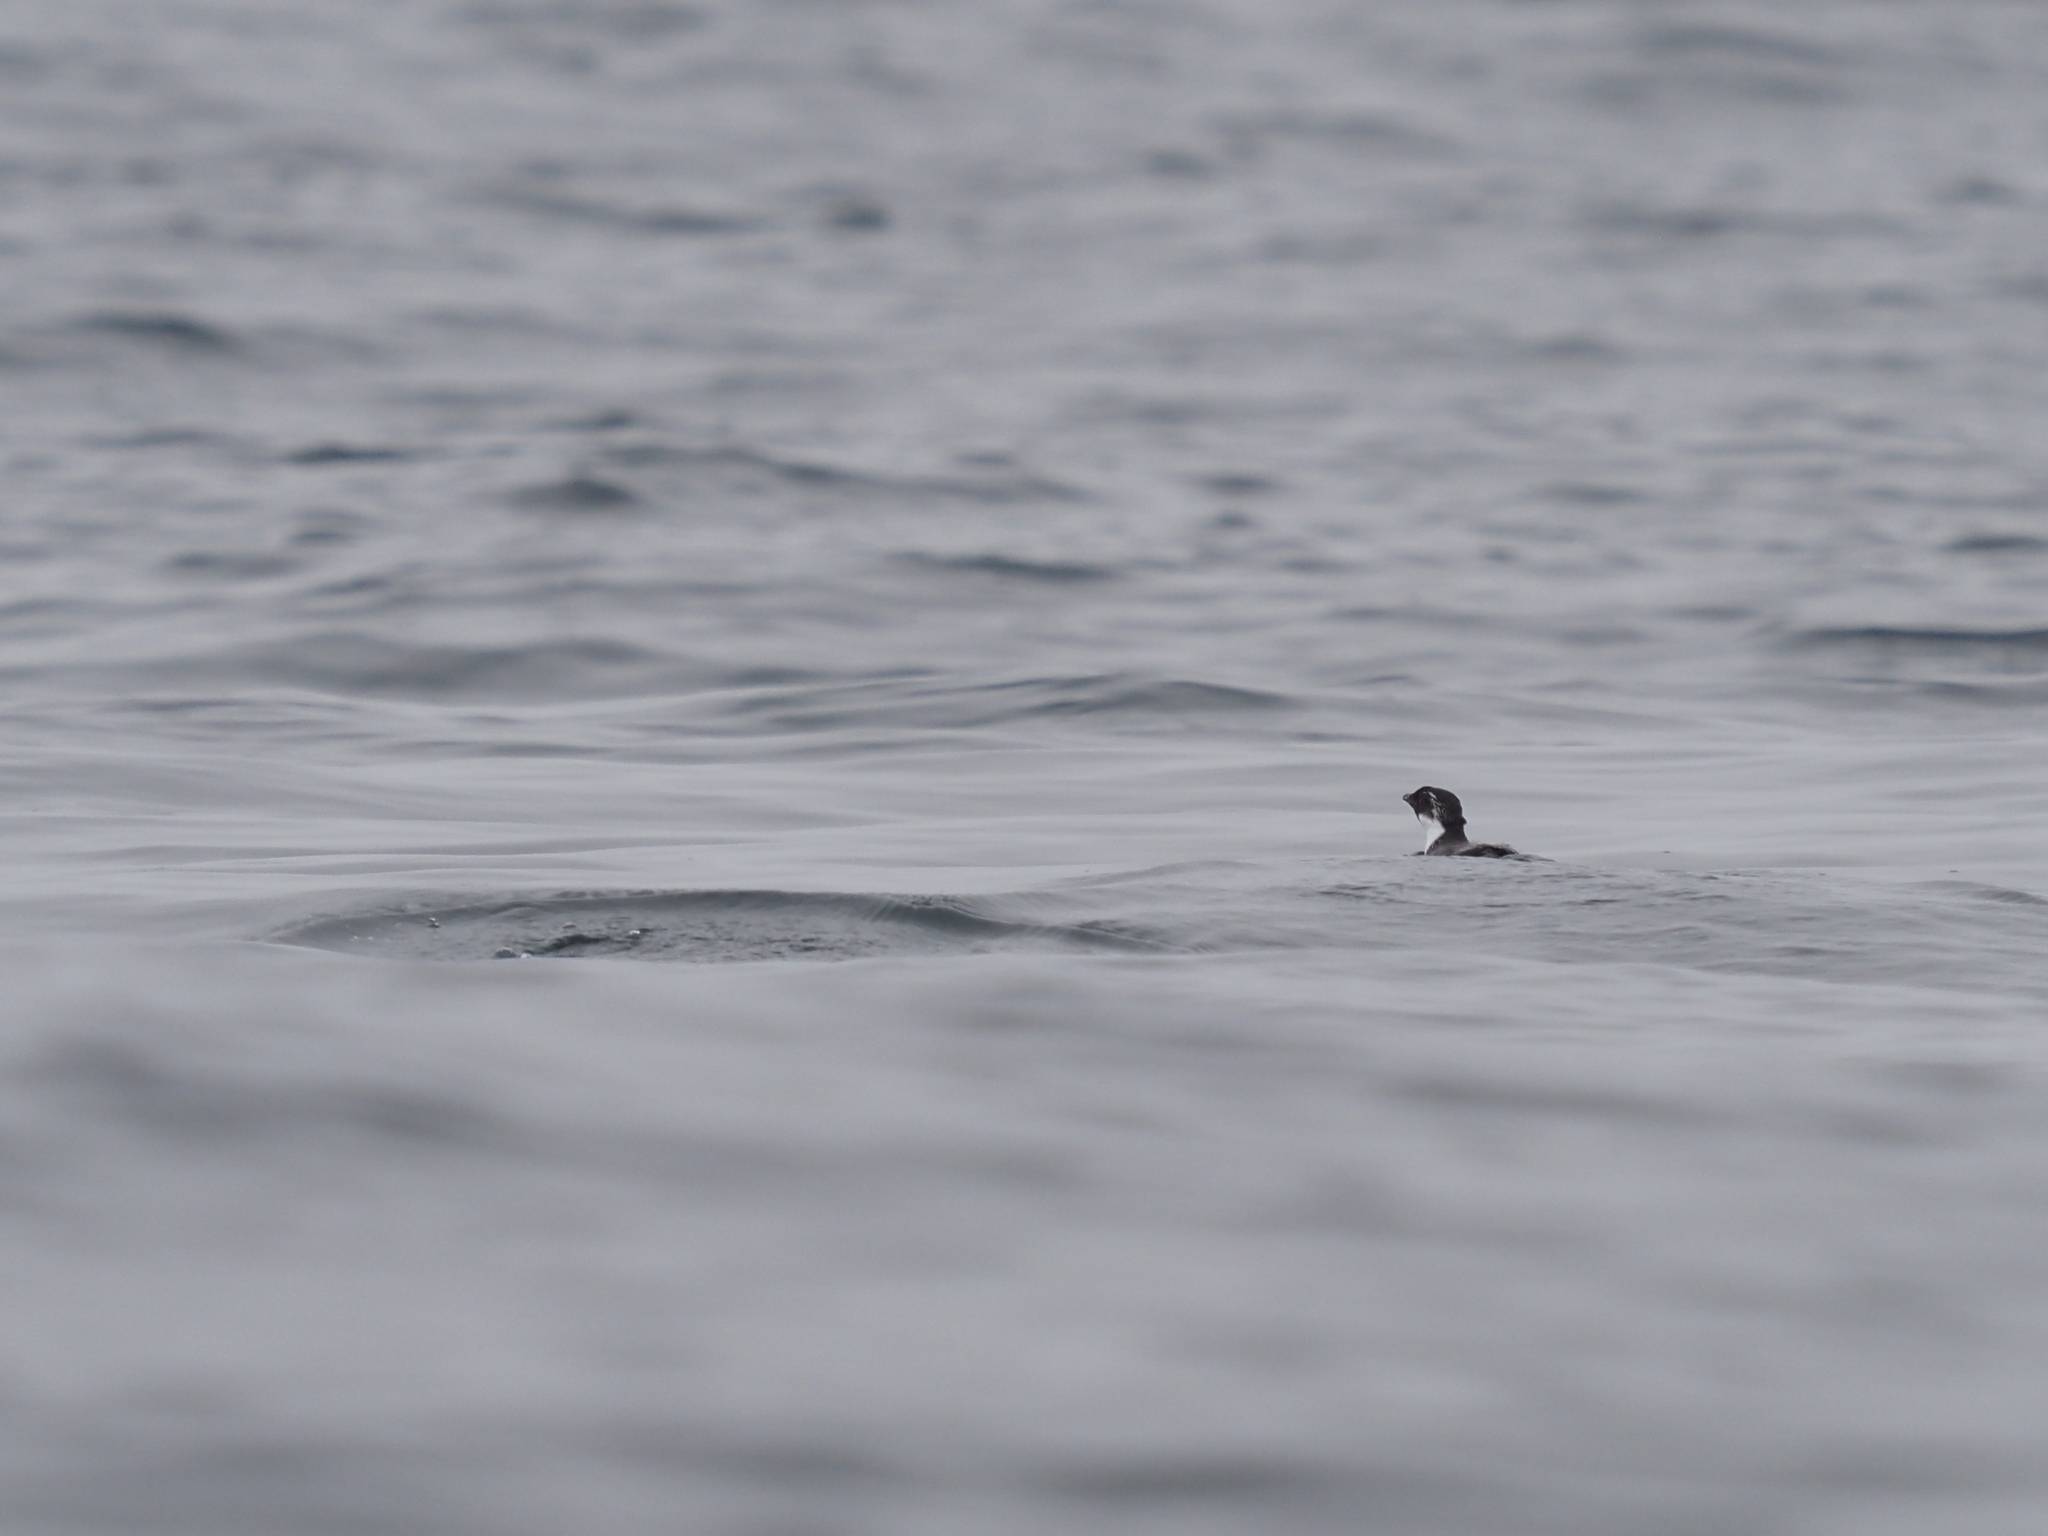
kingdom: Animalia
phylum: Chordata
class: Aves
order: Charadriiformes
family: Alcidae
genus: Synthliboramphus
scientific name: Synthliboramphus antiquus
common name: Ancient murrelet
